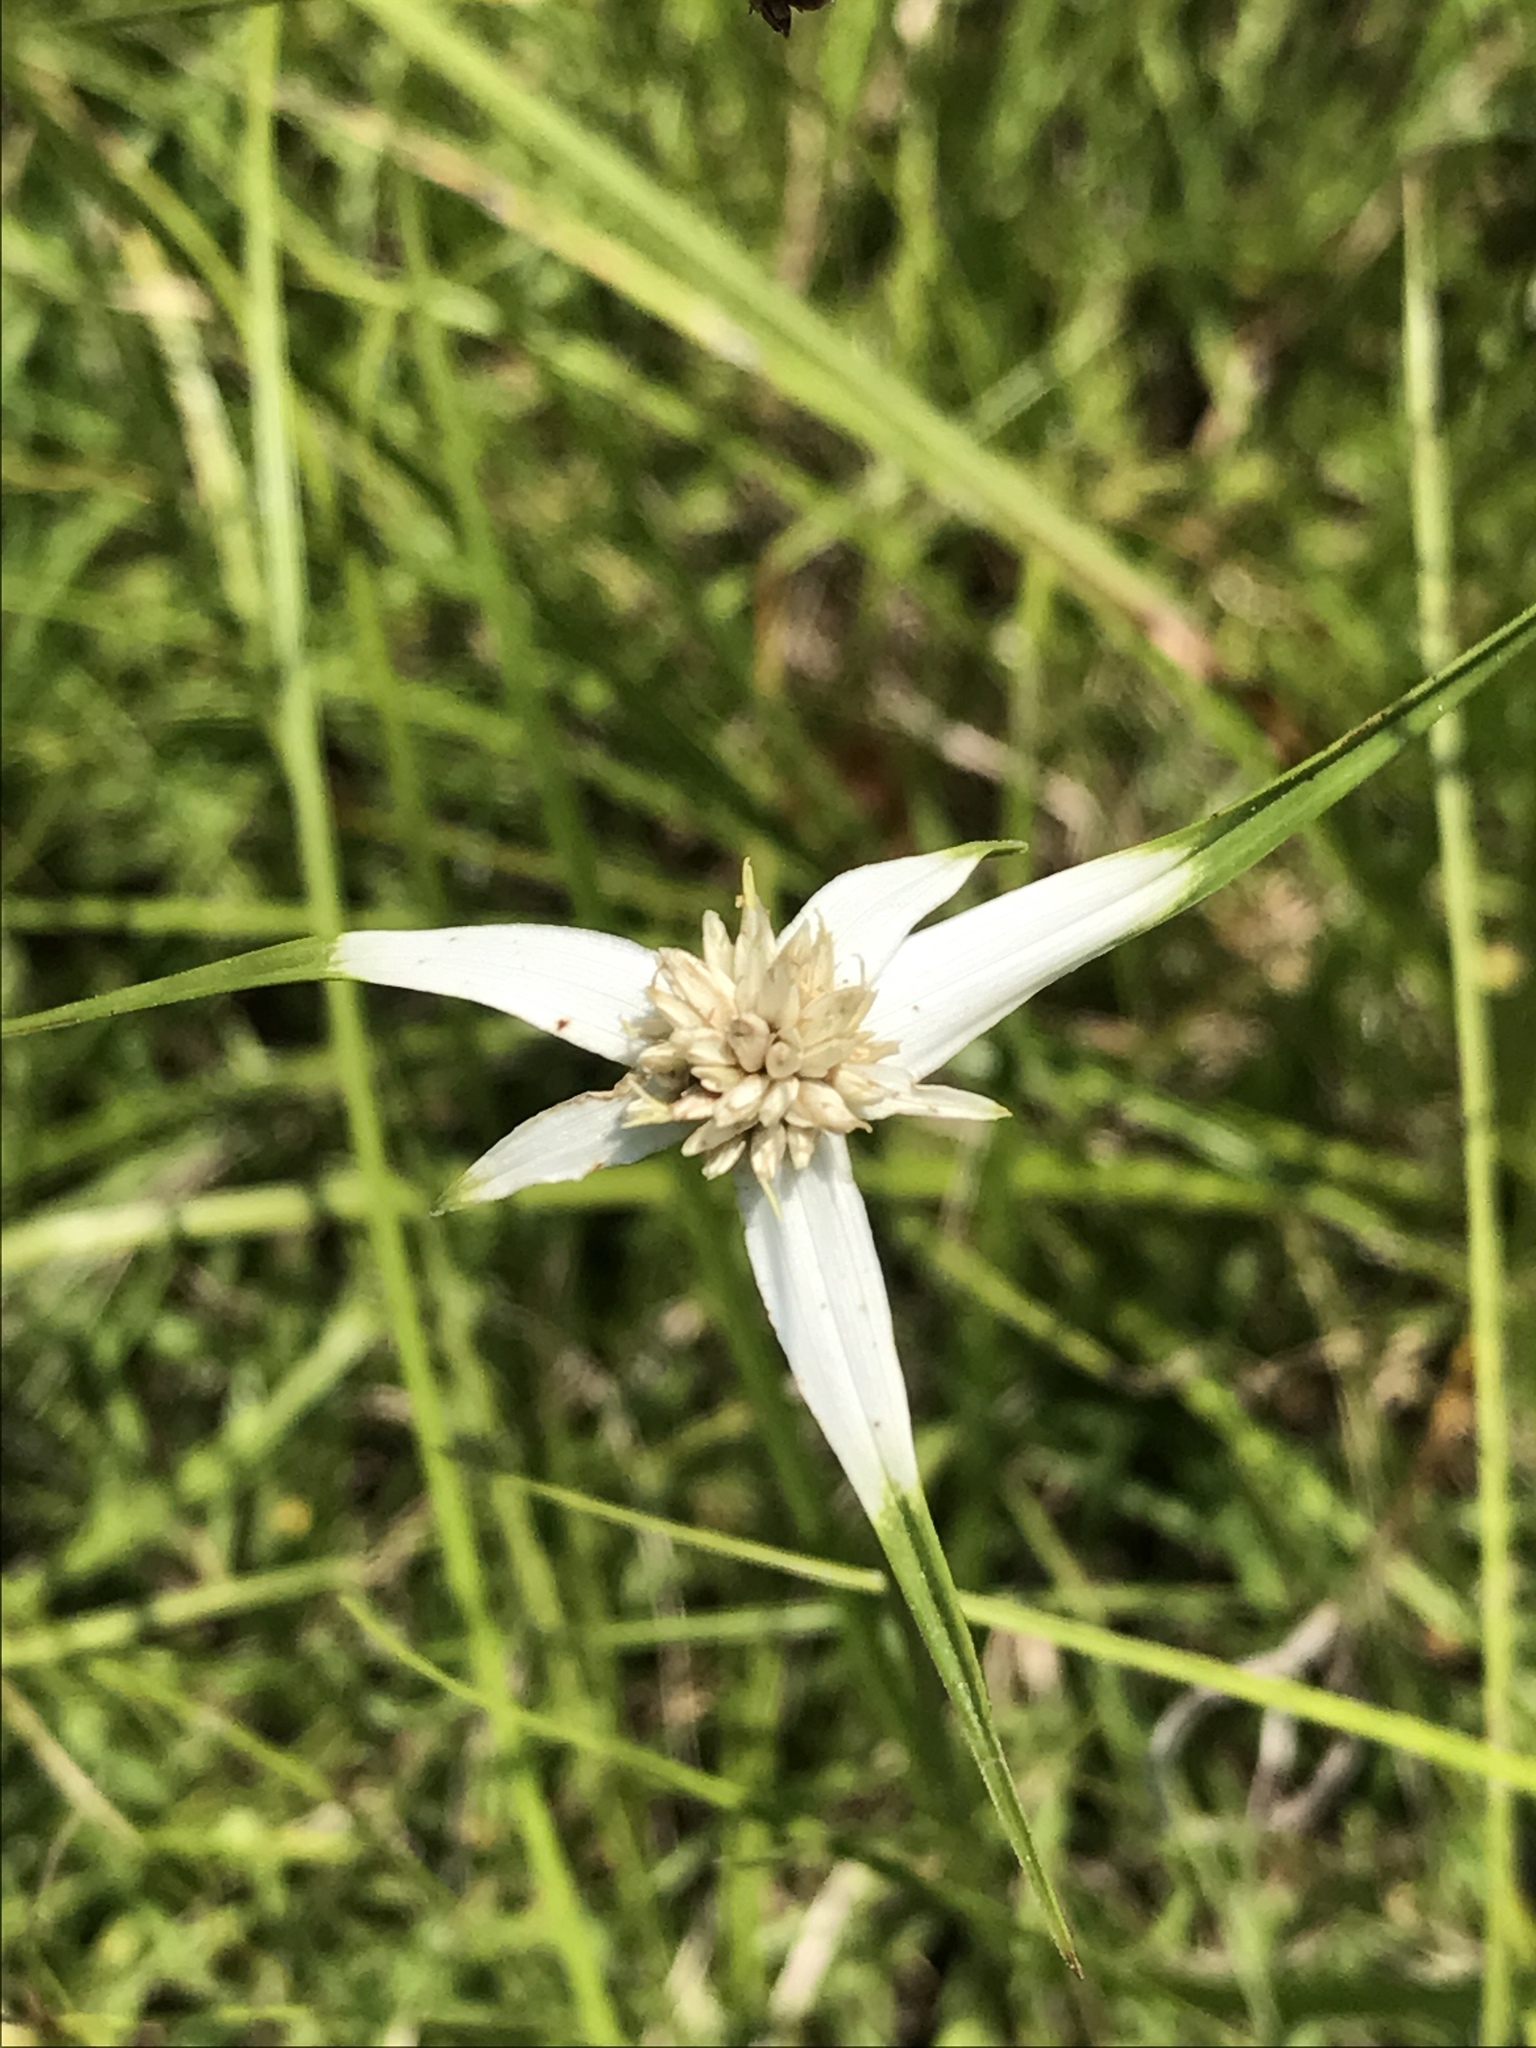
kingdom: Plantae
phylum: Tracheophyta
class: Liliopsida
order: Poales
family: Cyperaceae
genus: Rhynchospora
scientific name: Rhynchospora colorata
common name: Star sedge
